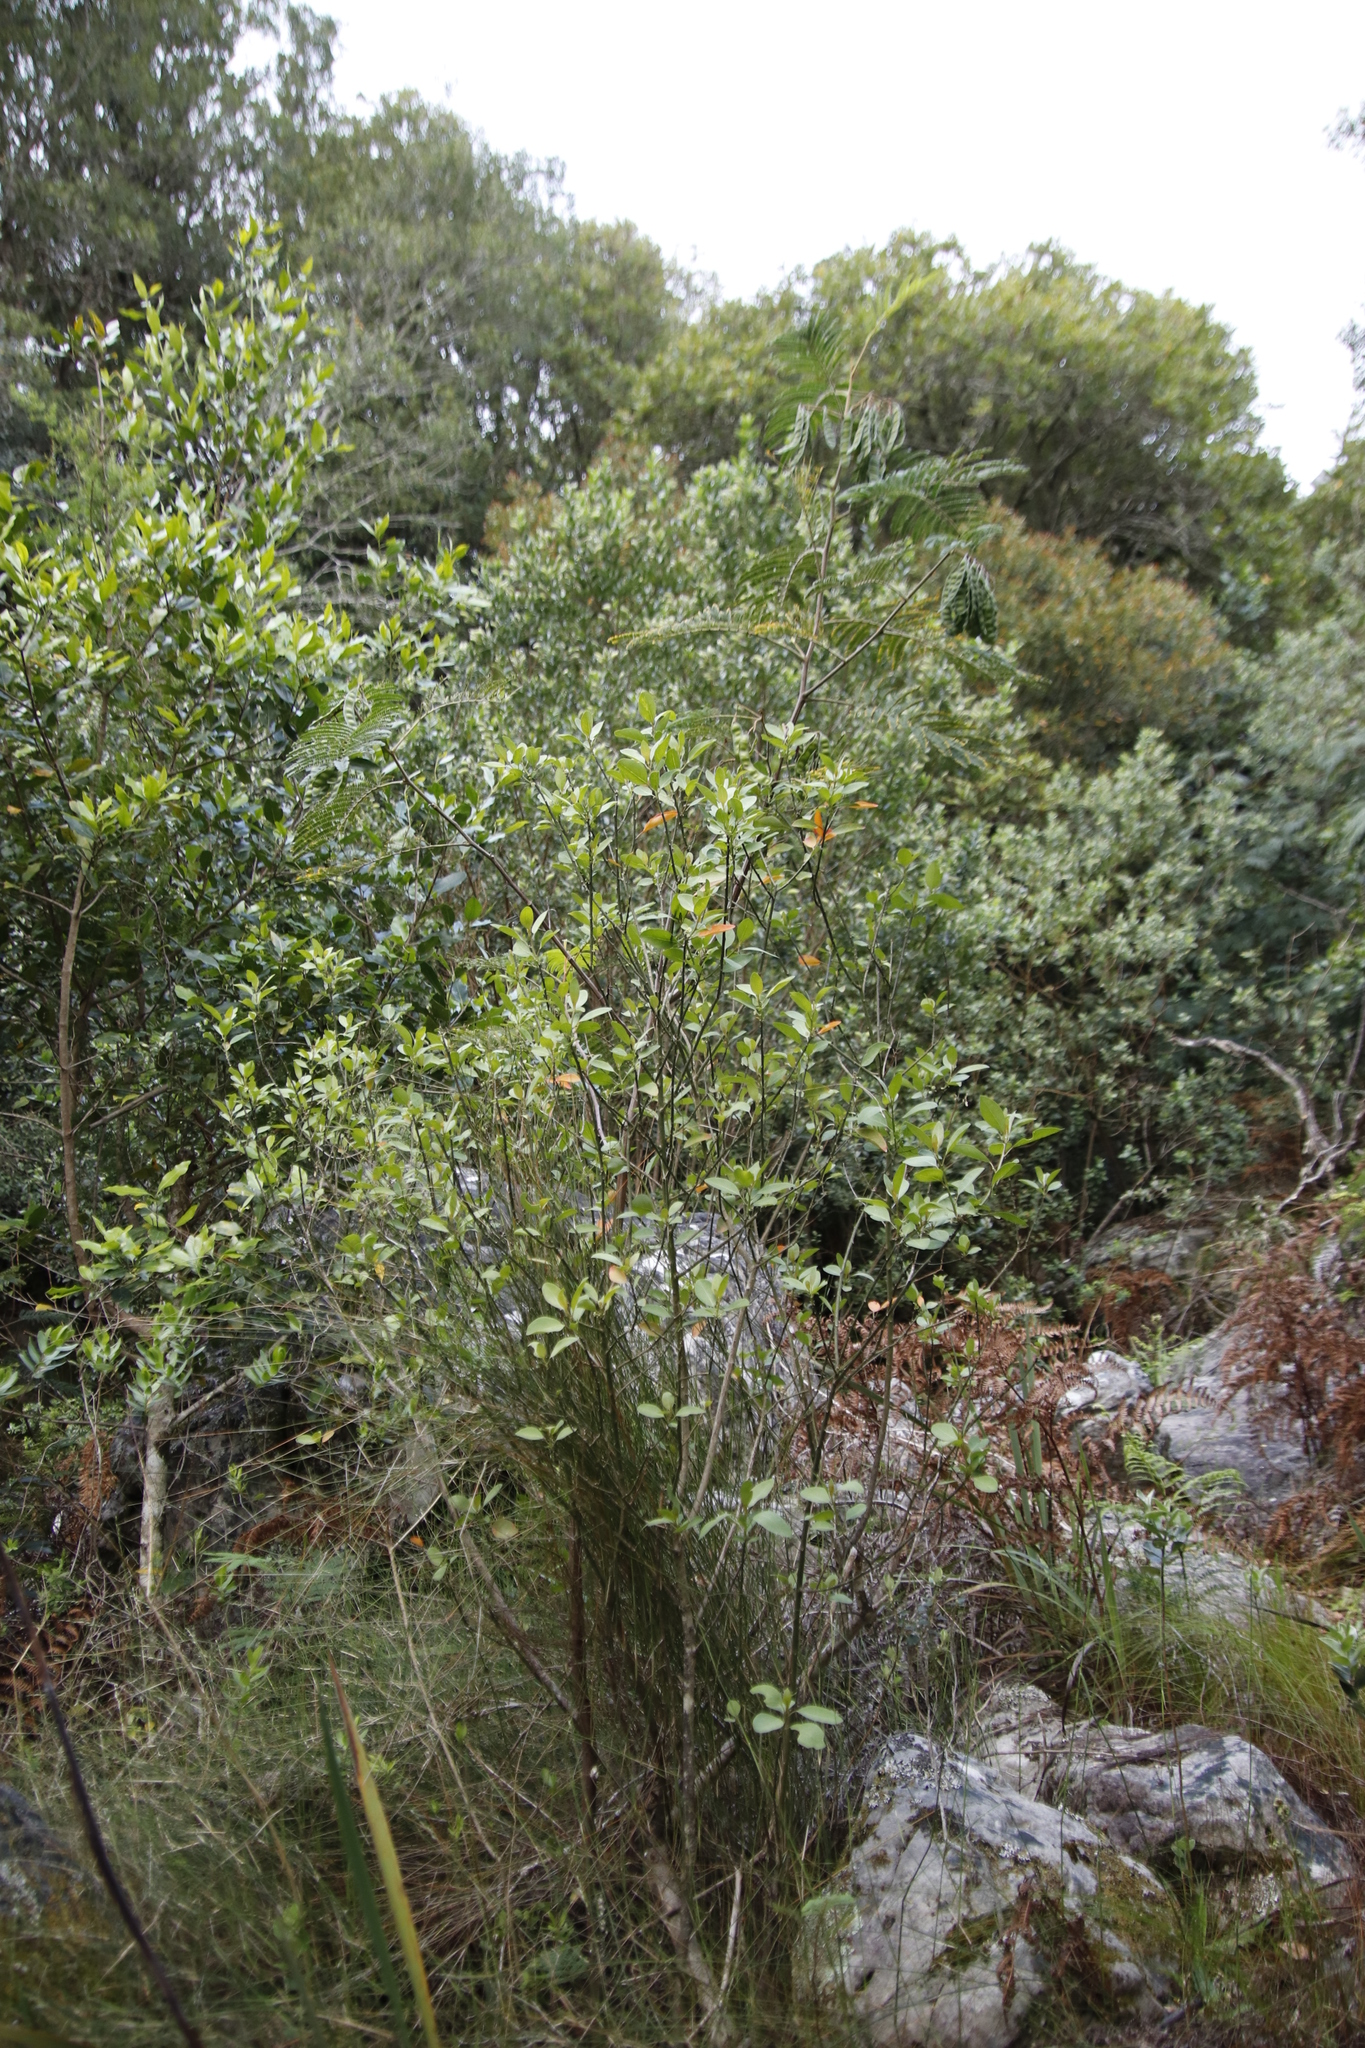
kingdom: Plantae
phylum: Tracheophyta
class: Magnoliopsida
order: Malpighiales
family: Peraceae
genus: Clutia
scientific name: Clutia pulchella
